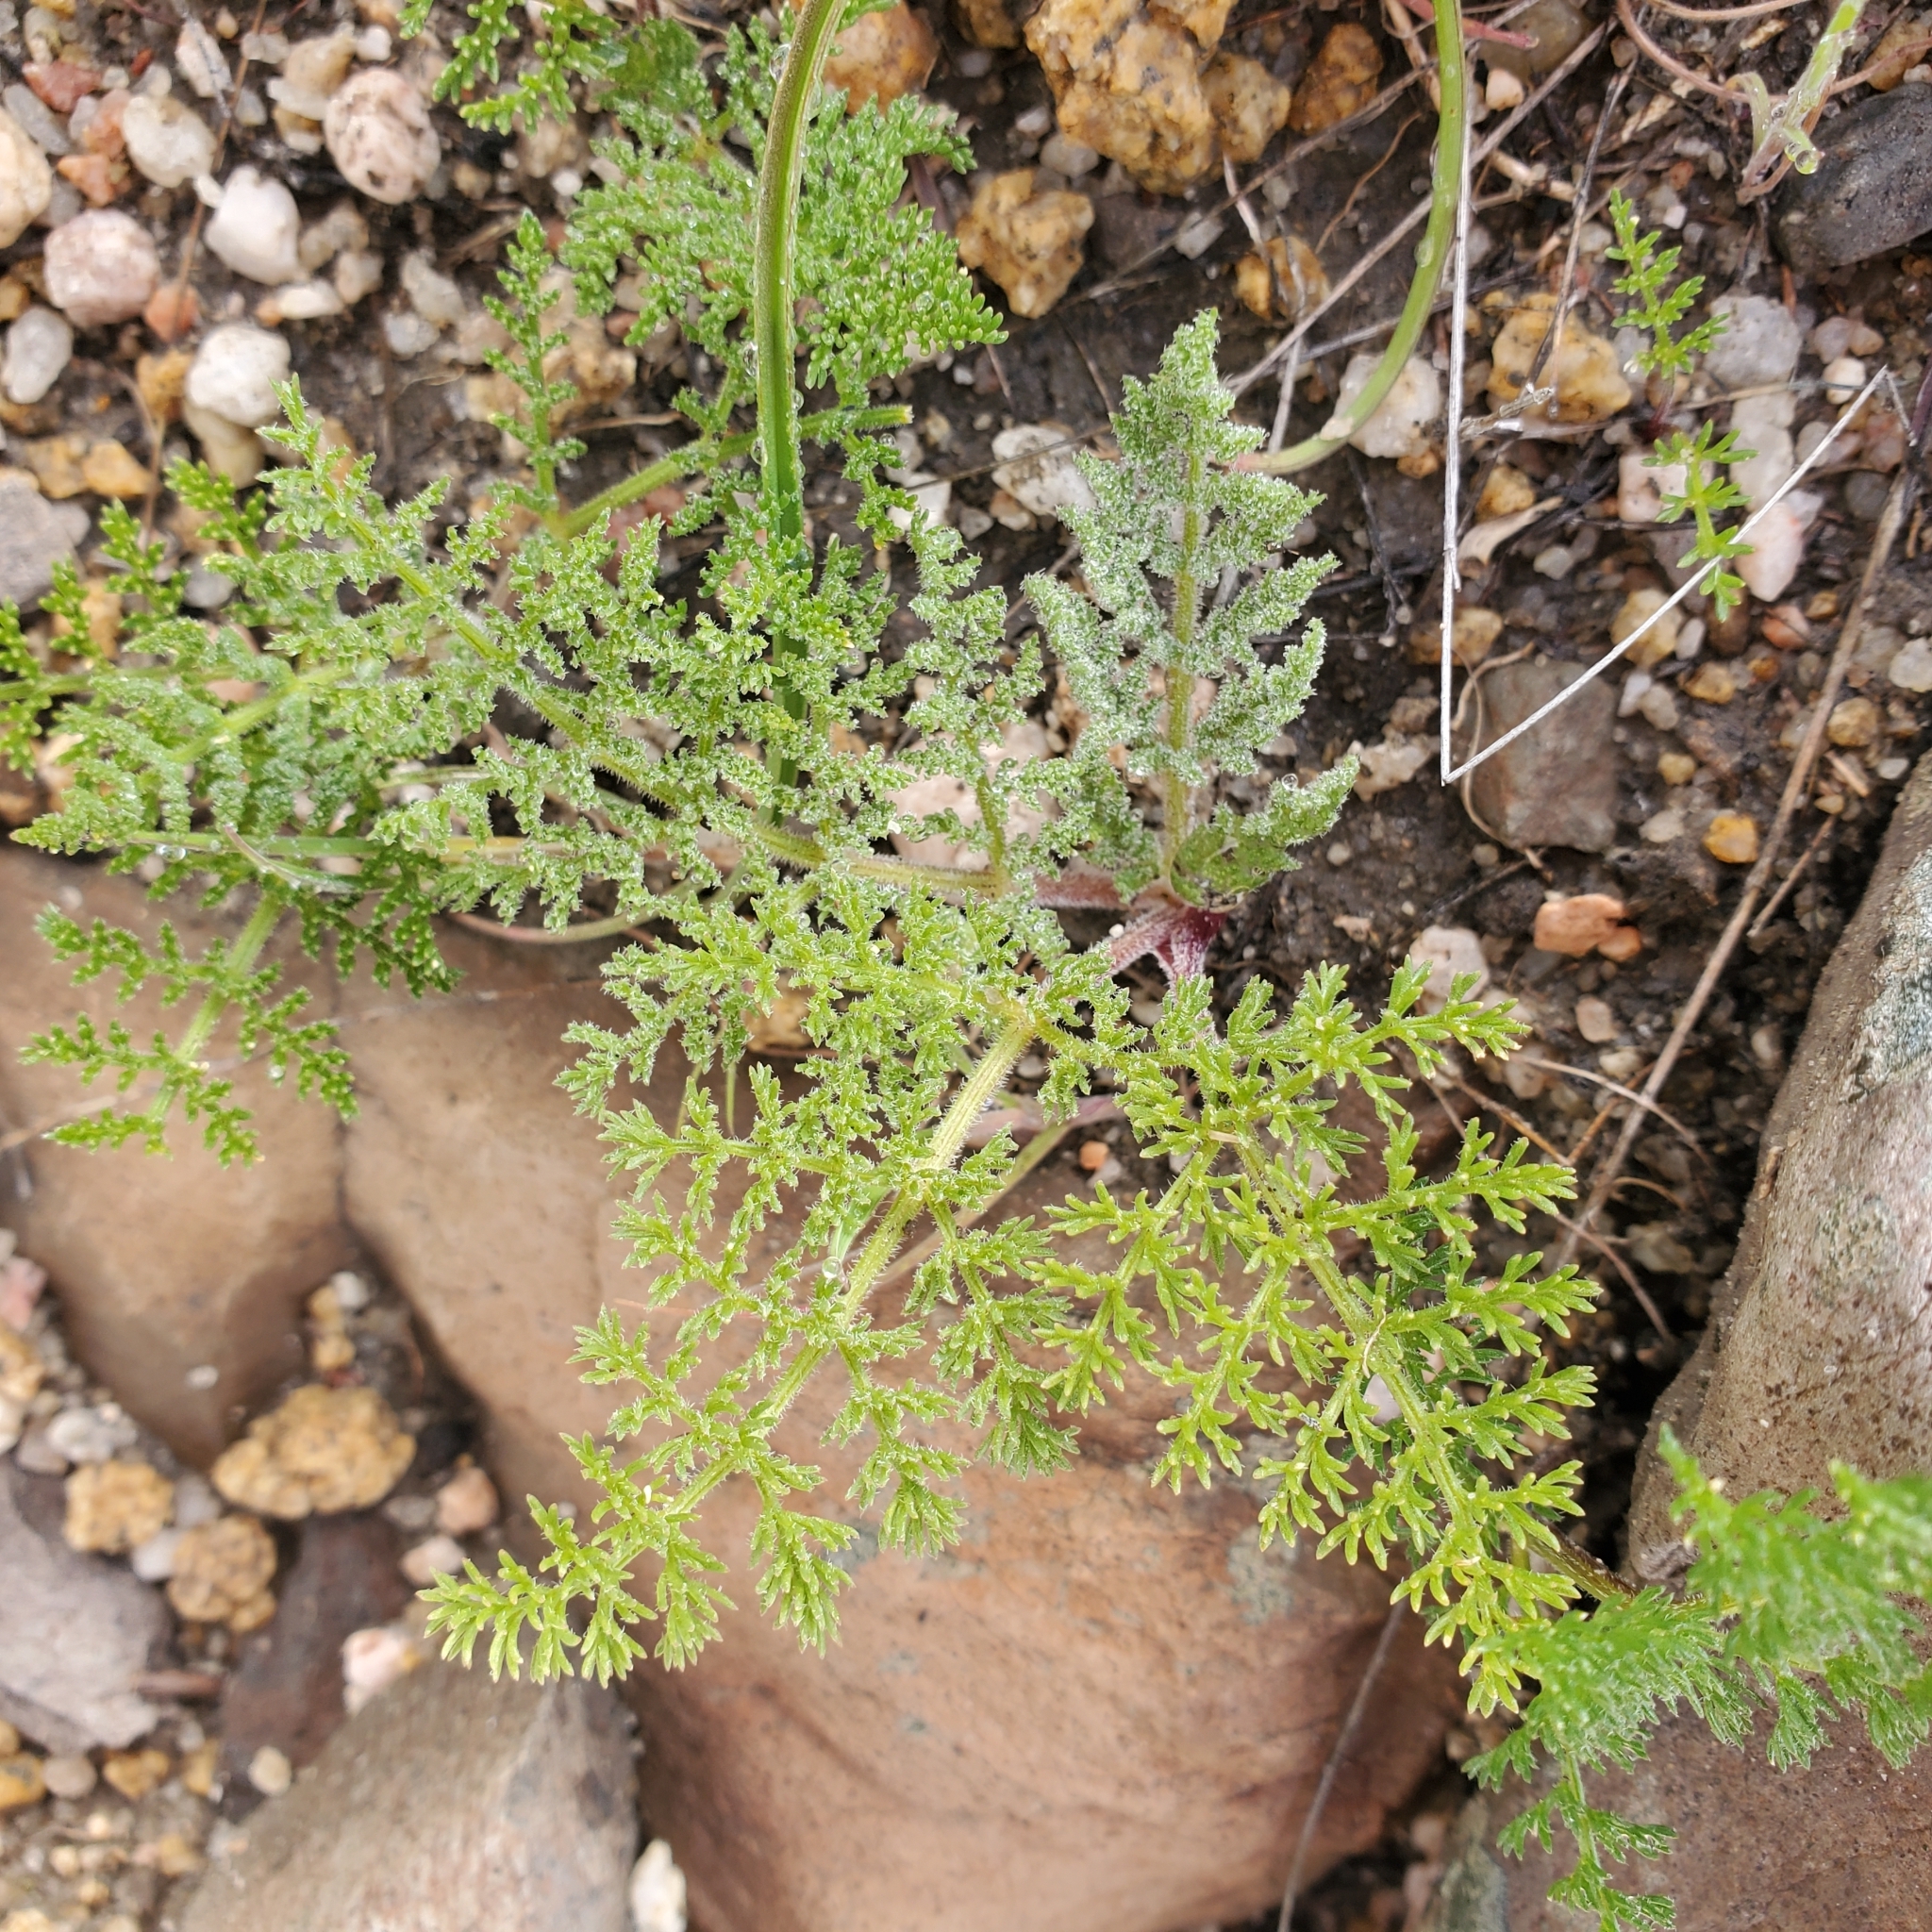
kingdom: Plantae
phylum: Tracheophyta
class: Magnoliopsida
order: Apiales
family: Apiaceae
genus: Lomatium
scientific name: Lomatium dasycarpum
